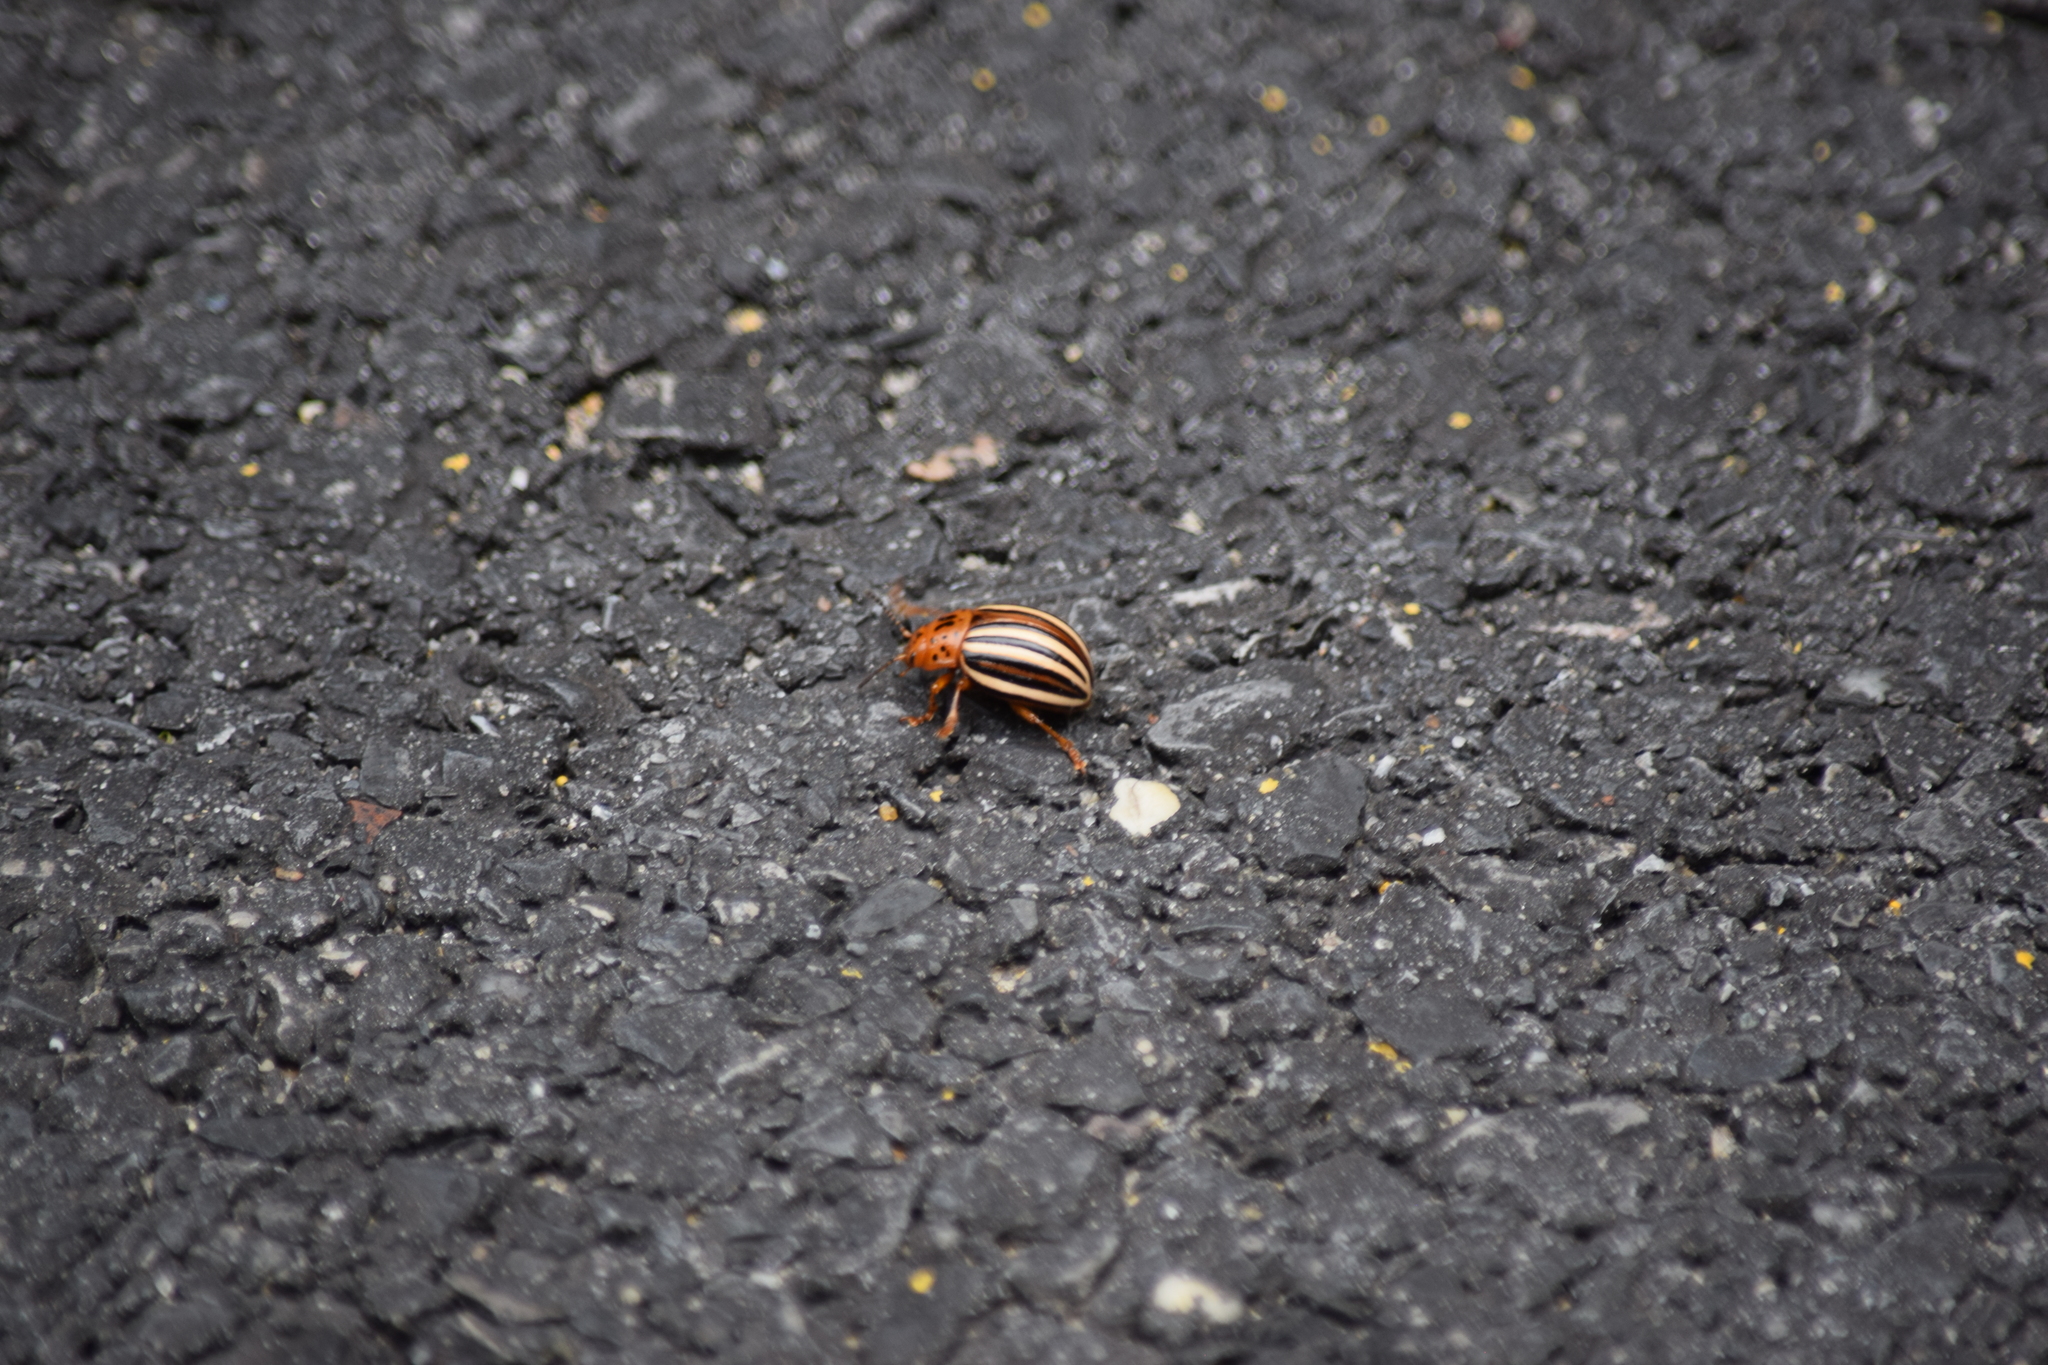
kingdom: Animalia
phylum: Arthropoda
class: Insecta
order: Coleoptera
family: Chrysomelidae
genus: Leptinotarsa
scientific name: Leptinotarsa juncta
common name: False potato beetle
